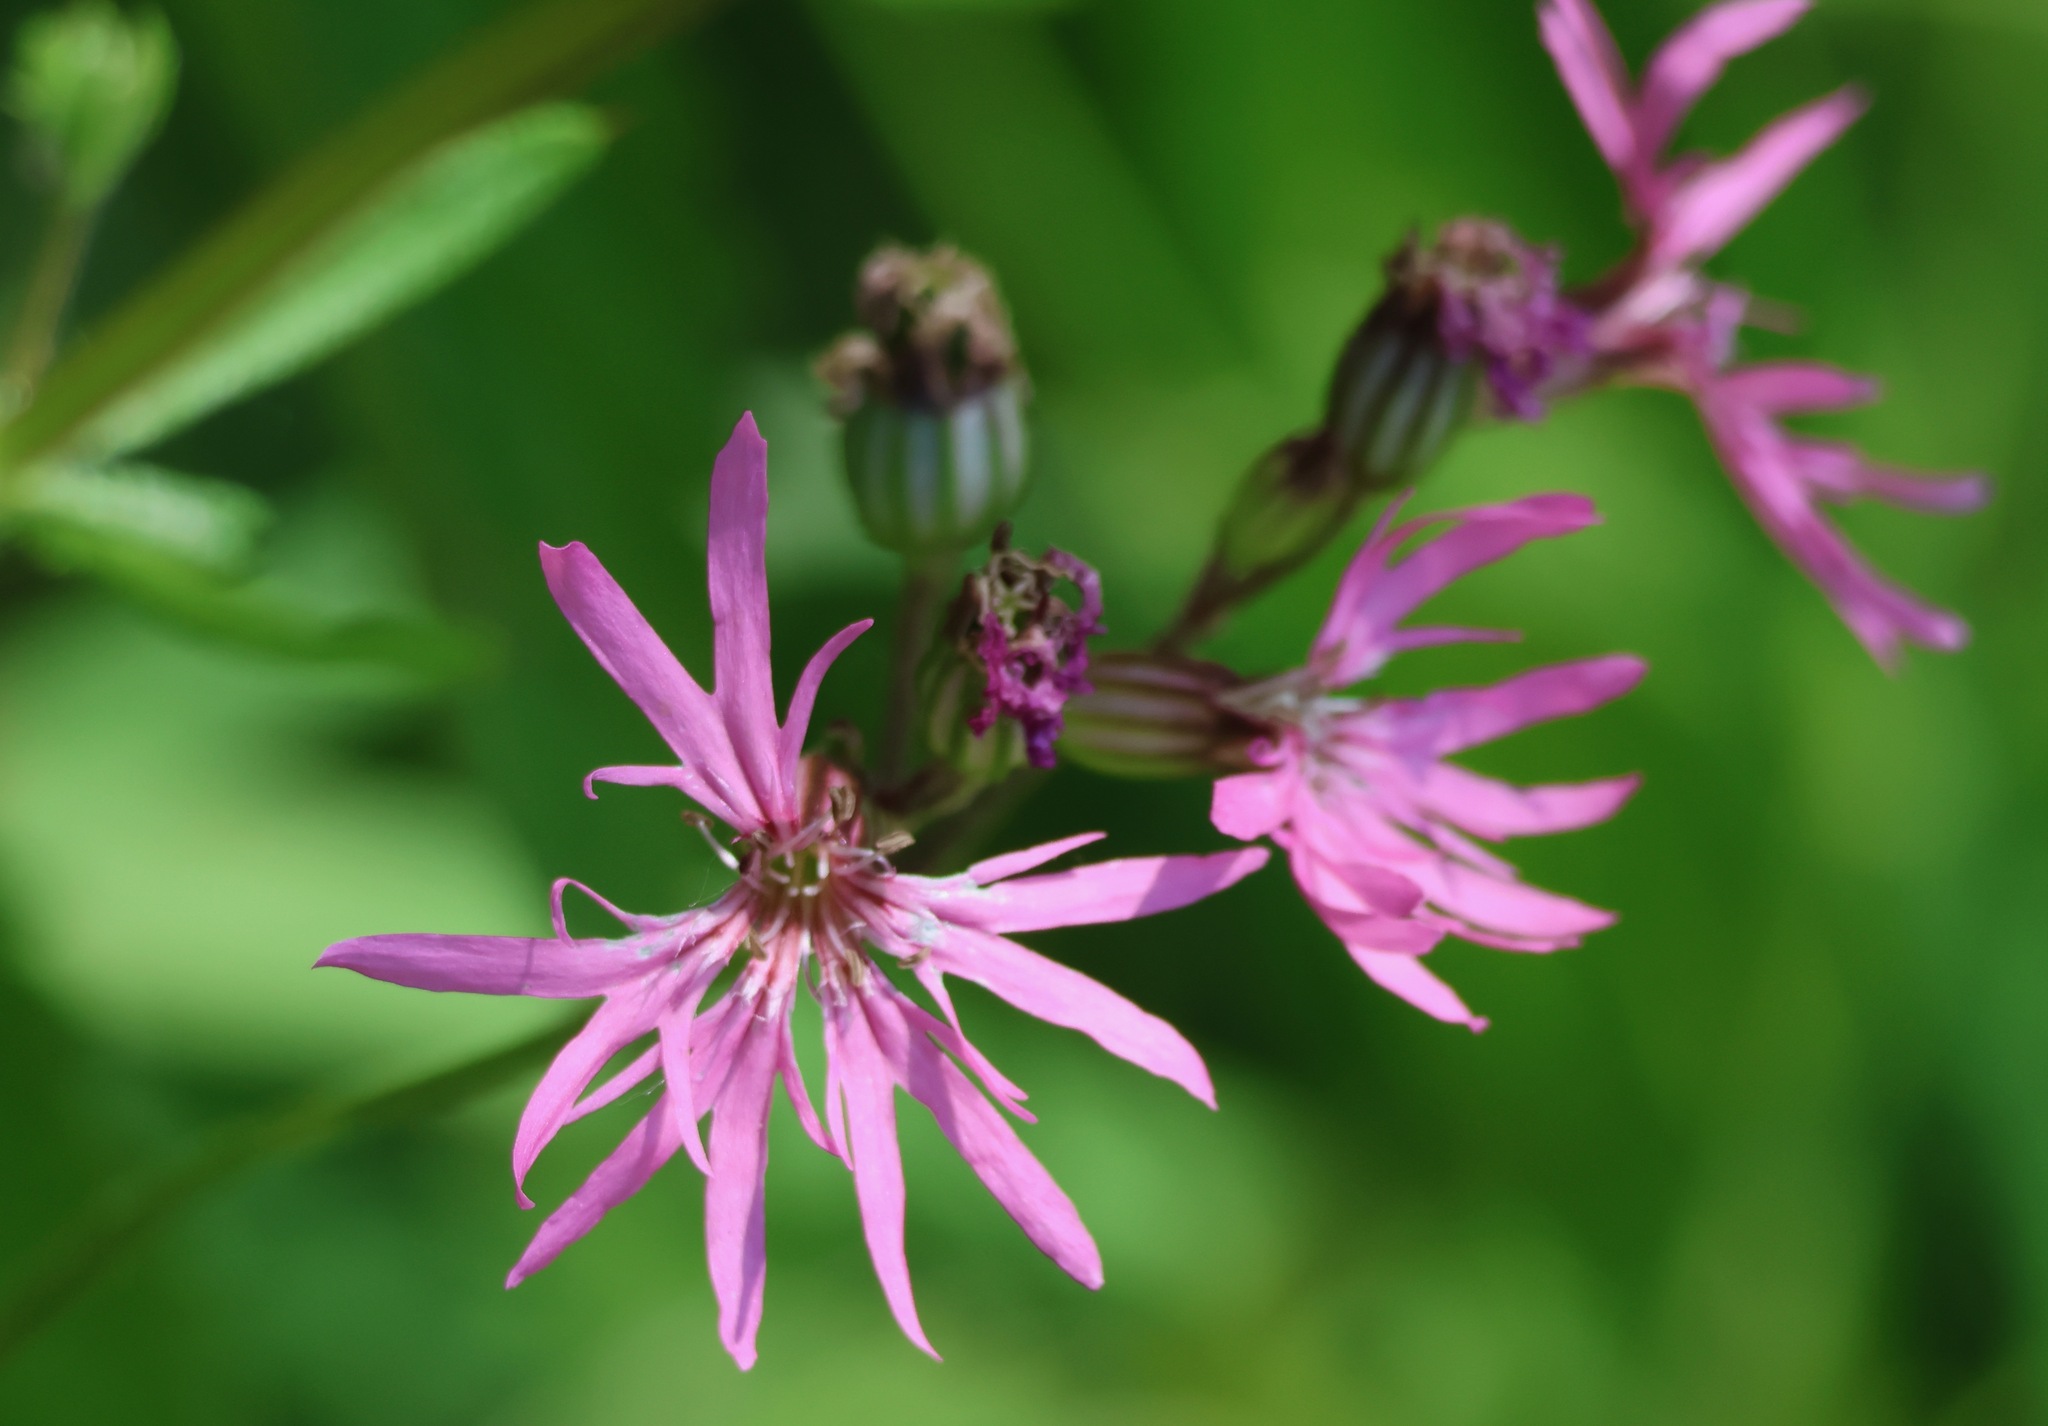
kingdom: Plantae
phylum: Tracheophyta
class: Magnoliopsida
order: Caryophyllales
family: Caryophyllaceae
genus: Silene
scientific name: Silene flos-cuculi
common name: Ragged-robin
